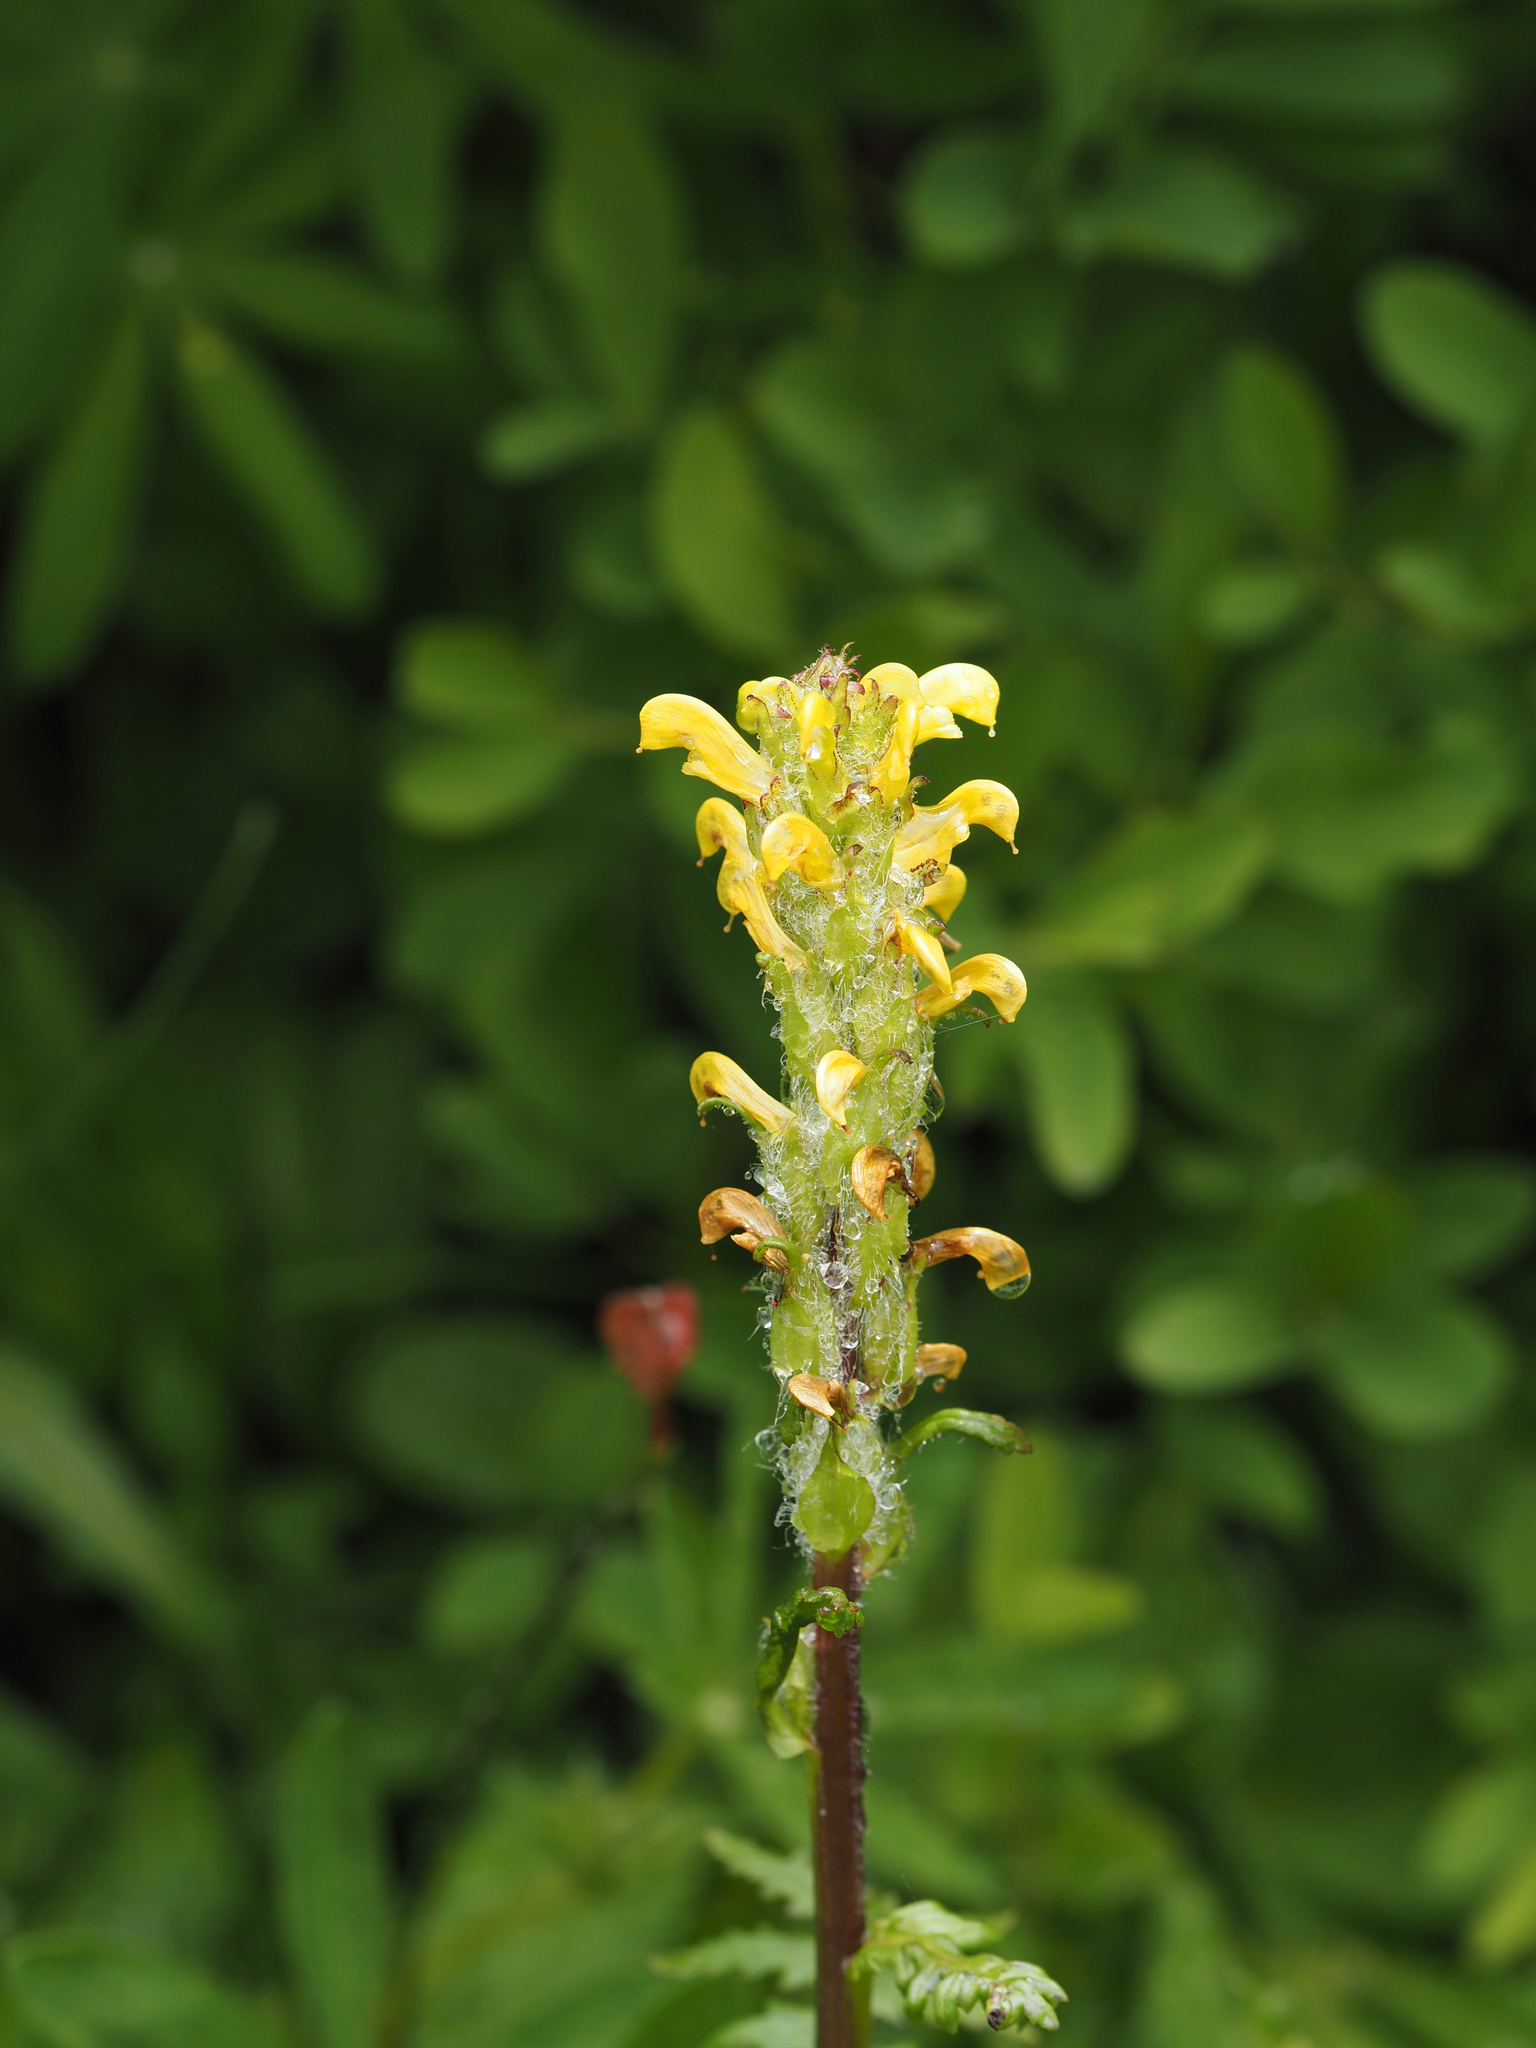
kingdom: Plantae
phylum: Tracheophyta
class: Magnoliopsida
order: Lamiales
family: Orobanchaceae
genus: Pedicularis
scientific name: Pedicularis rainierensis
